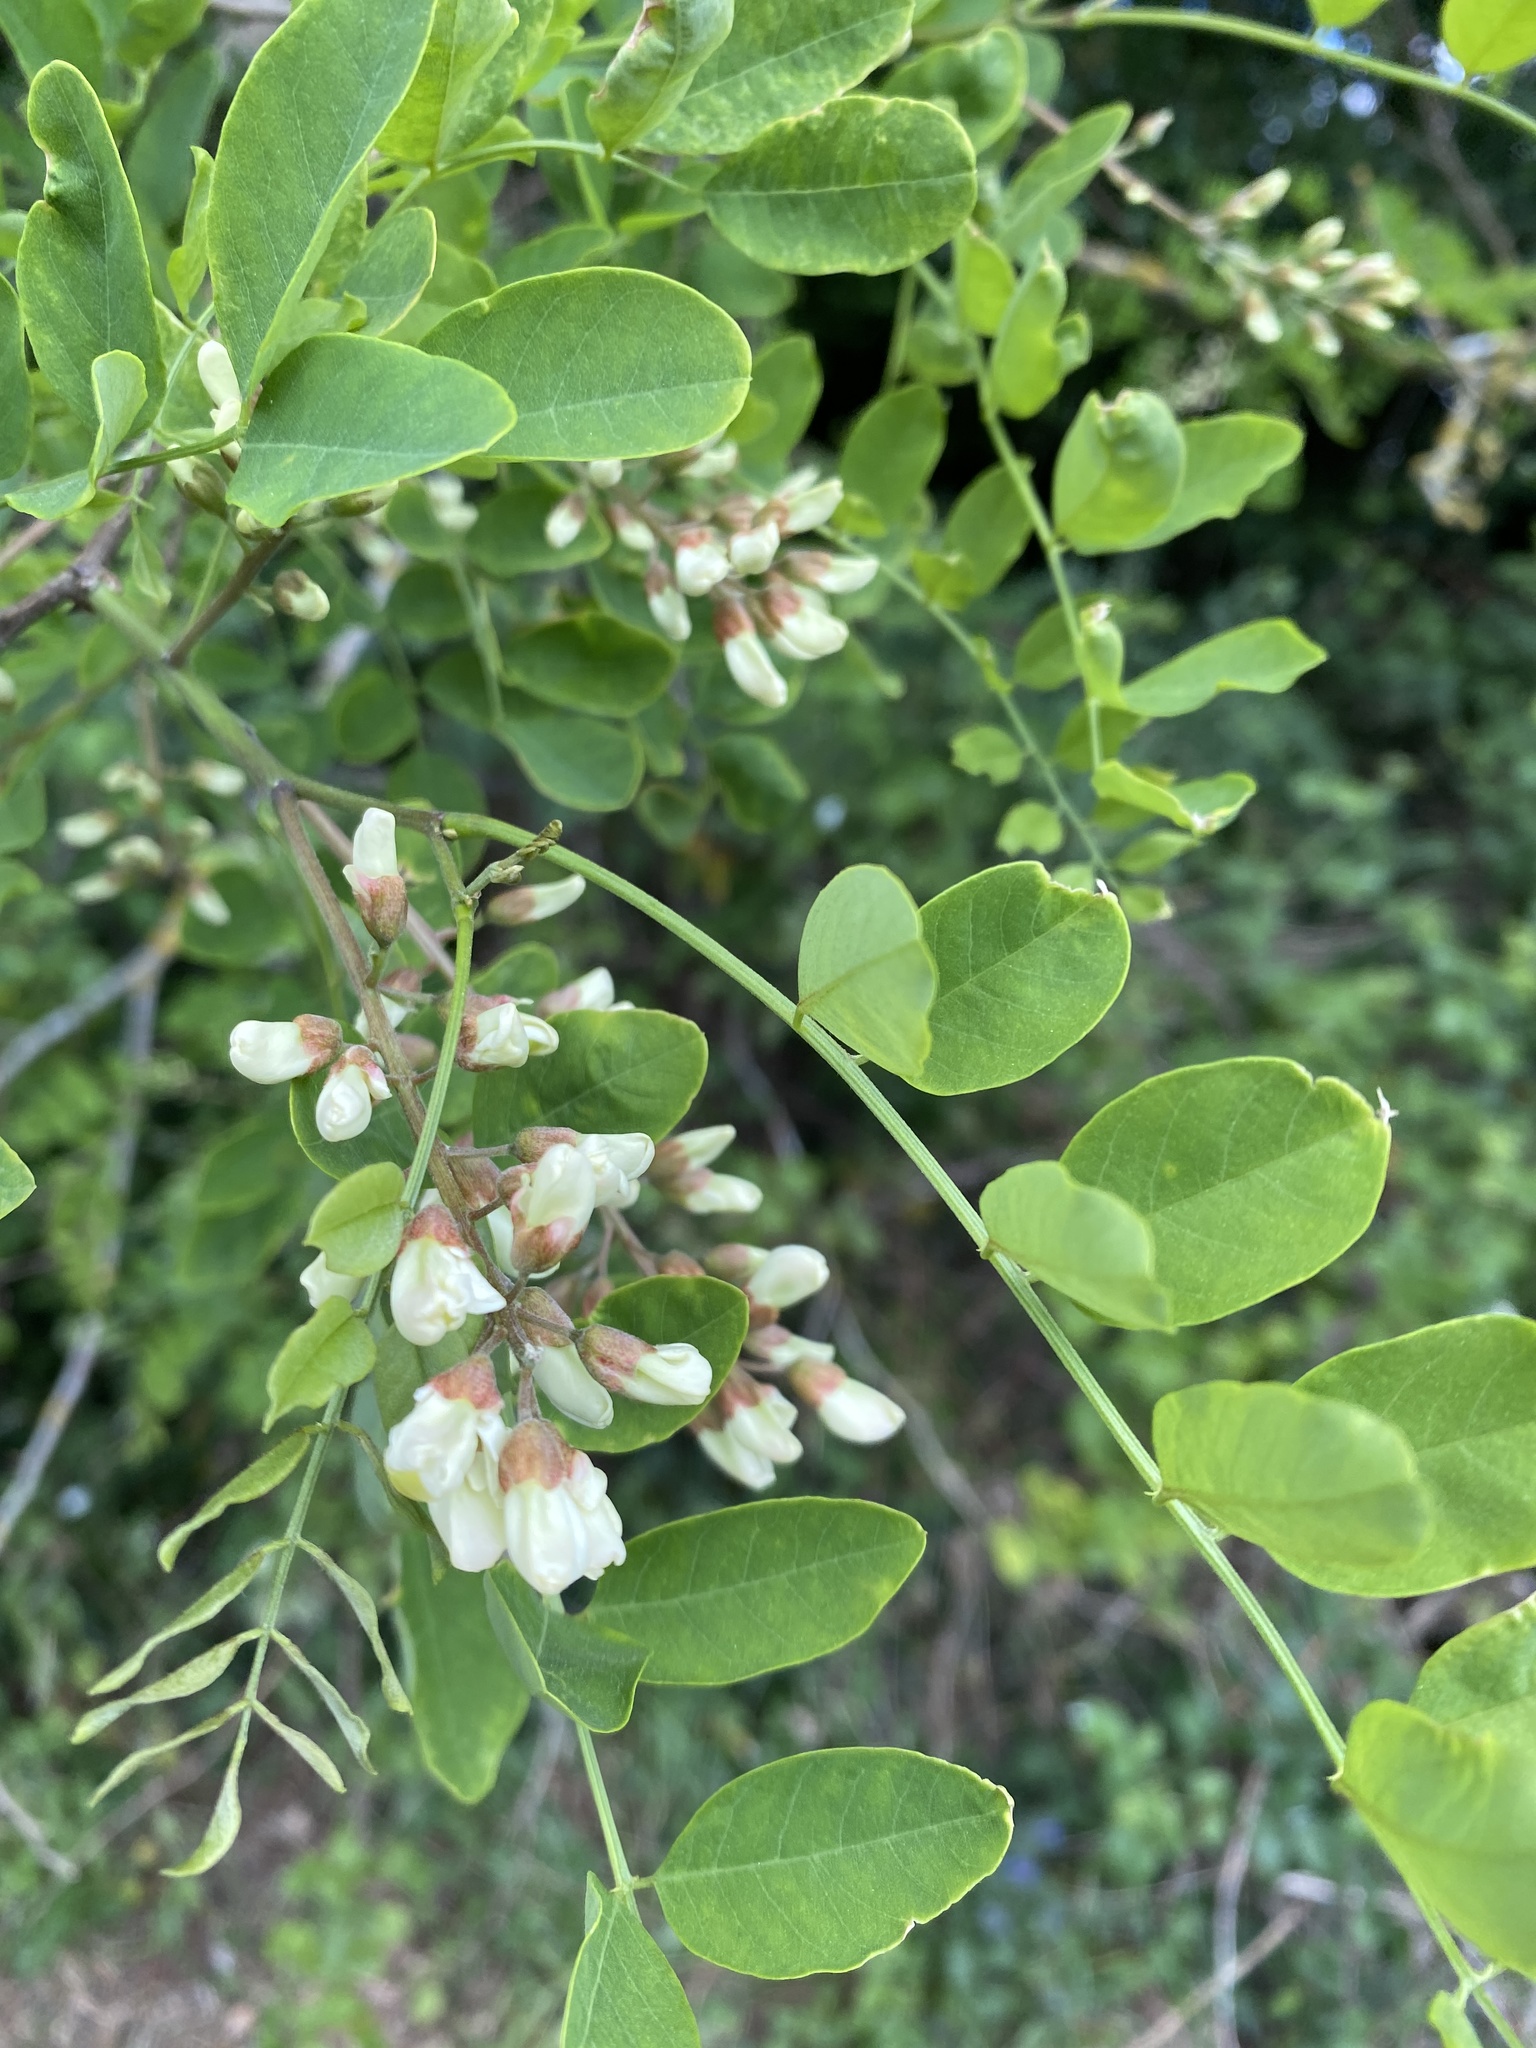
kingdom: Plantae
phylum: Tracheophyta
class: Magnoliopsida
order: Fabales
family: Fabaceae
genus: Robinia
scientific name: Robinia pseudoacacia
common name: Black locust
